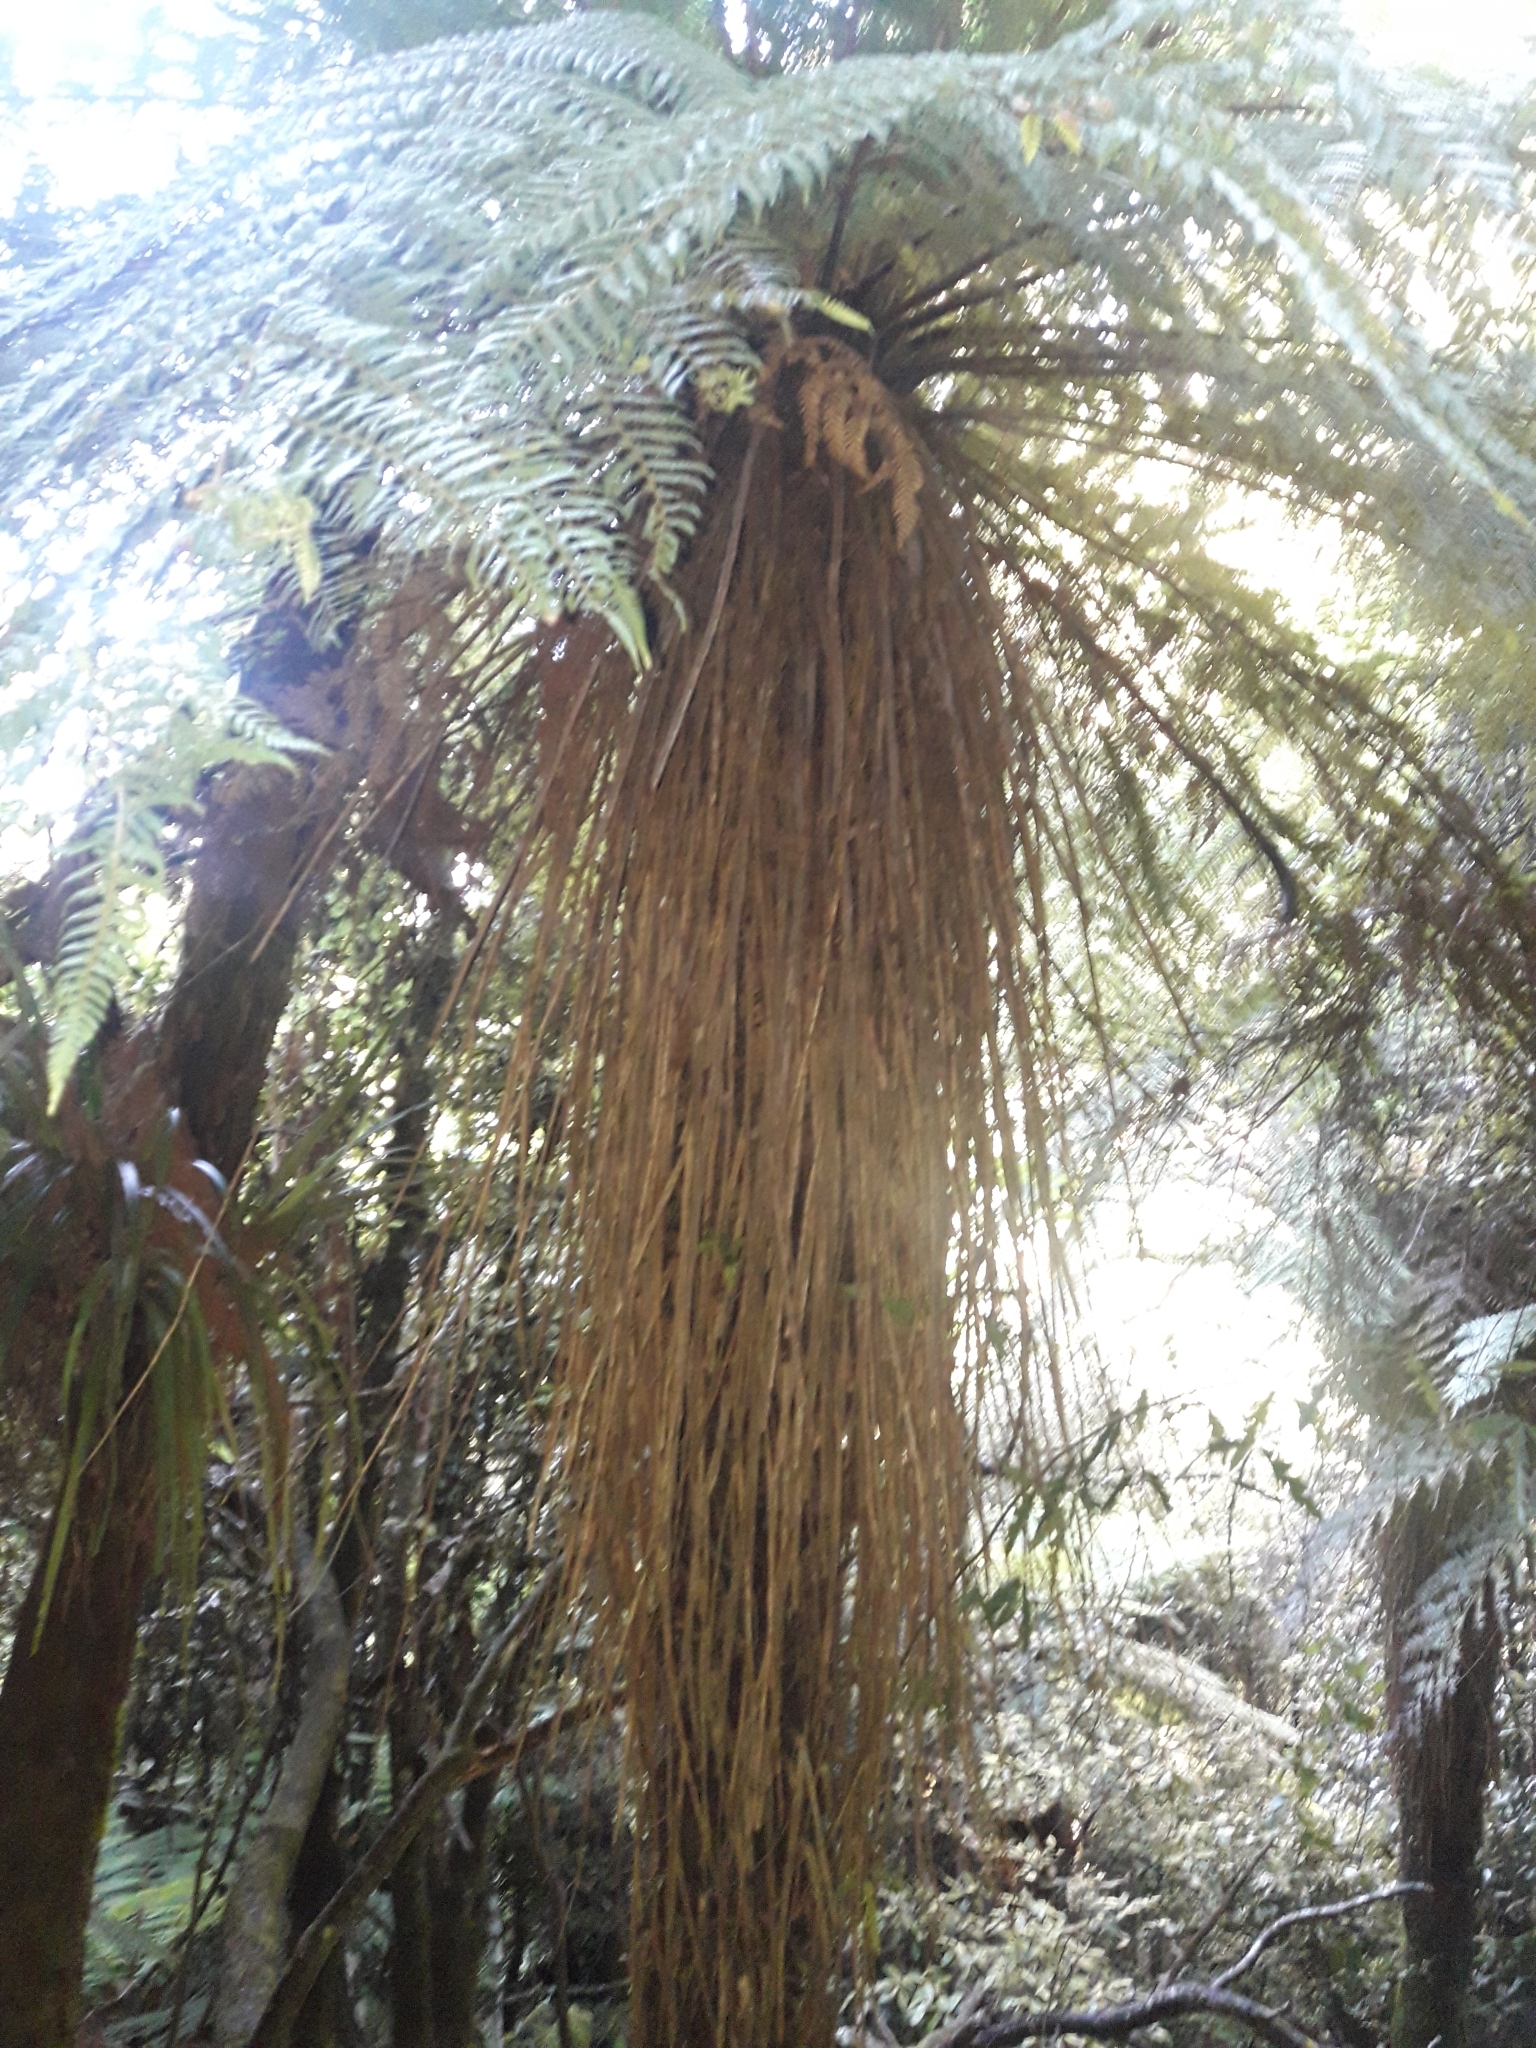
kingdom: Plantae
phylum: Tracheophyta
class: Polypodiopsida
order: Cyatheales
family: Cyatheaceae
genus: Alsophila
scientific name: Alsophila smithii
